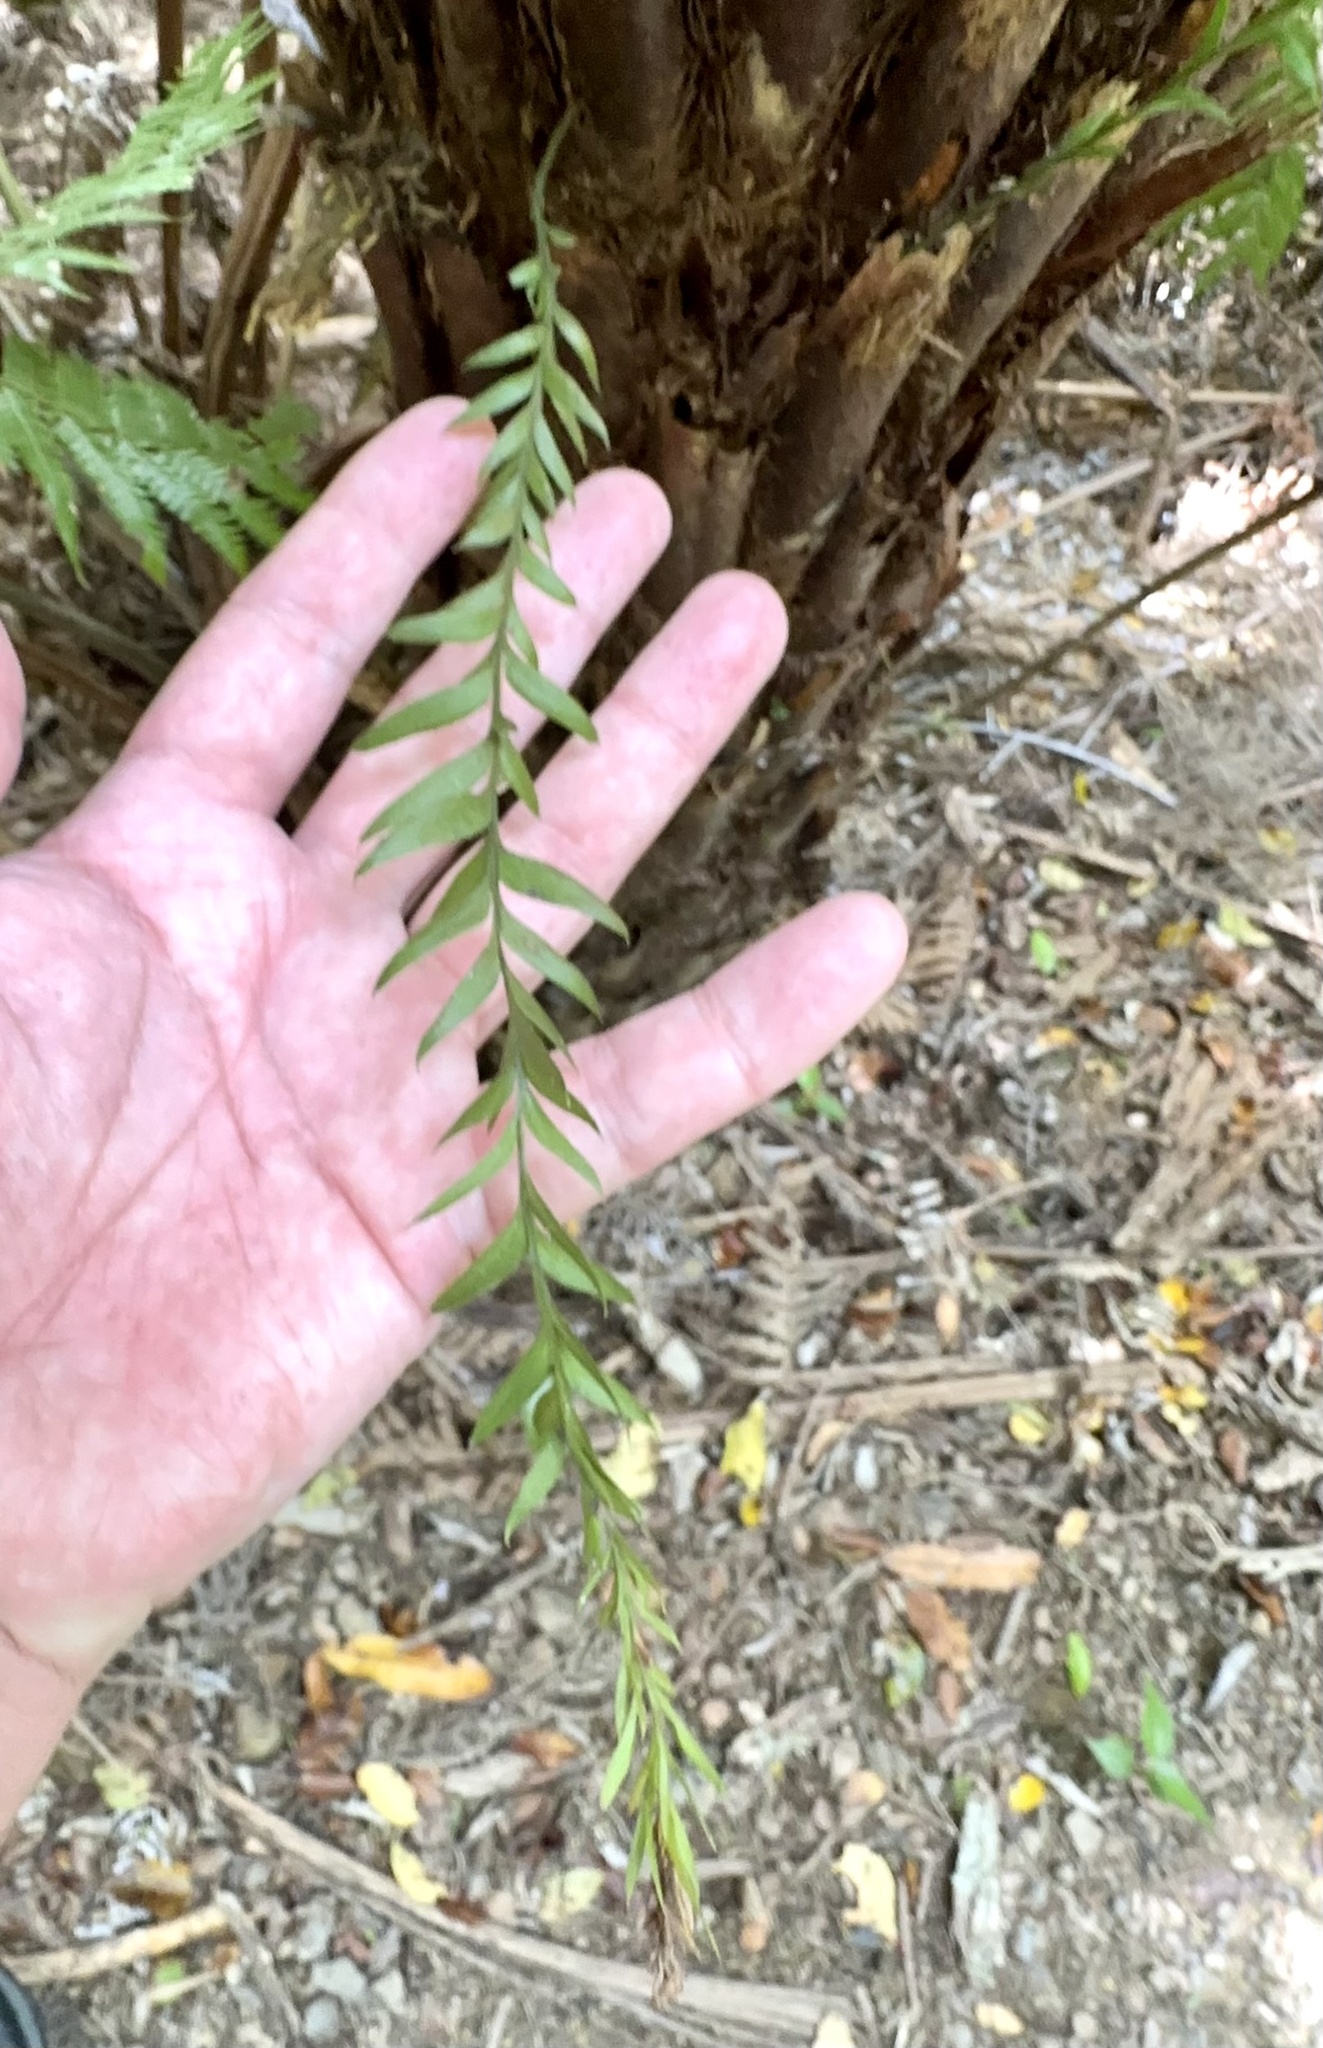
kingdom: Plantae
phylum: Tracheophyta
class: Polypodiopsida
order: Psilotales
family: Psilotaceae
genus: Tmesipteris
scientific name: Tmesipteris tannensis
